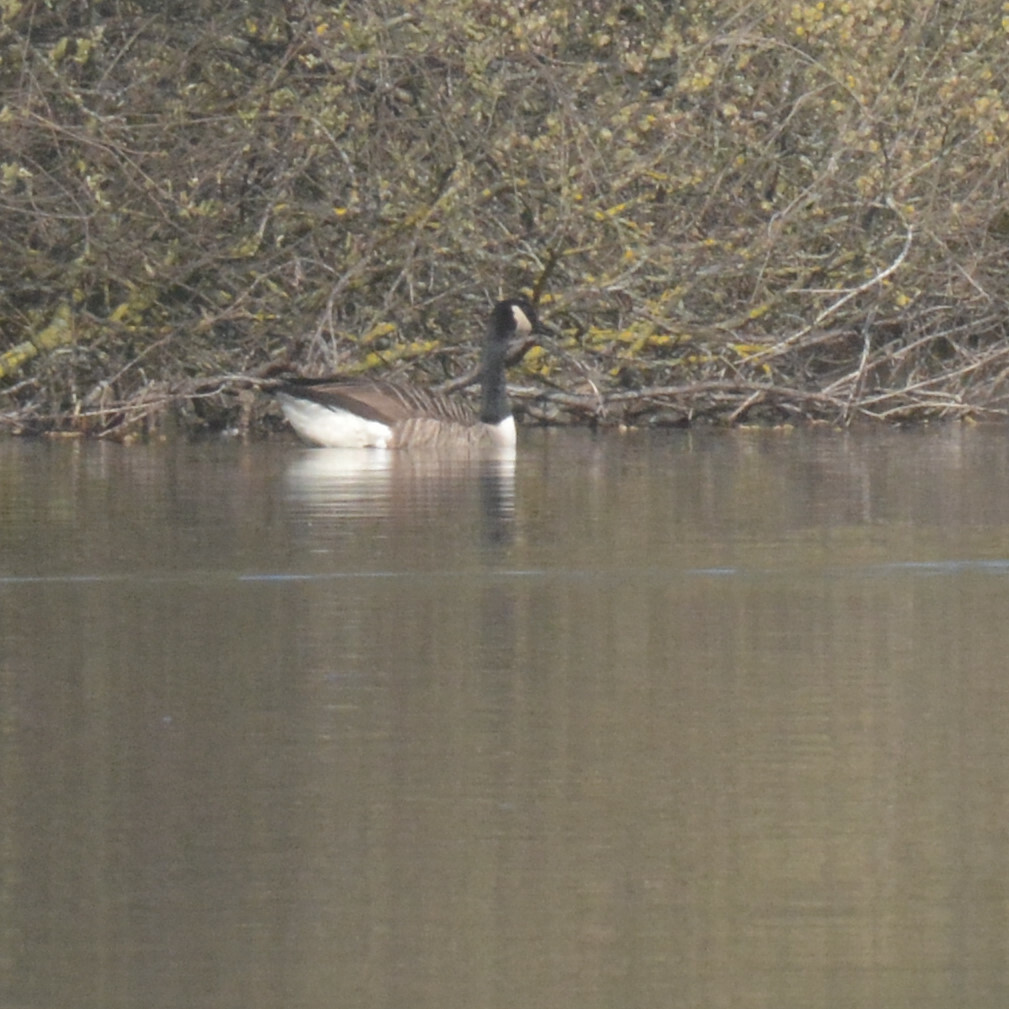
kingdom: Animalia
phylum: Chordata
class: Aves
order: Anseriformes
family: Anatidae
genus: Branta
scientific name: Branta canadensis
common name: Canada goose
